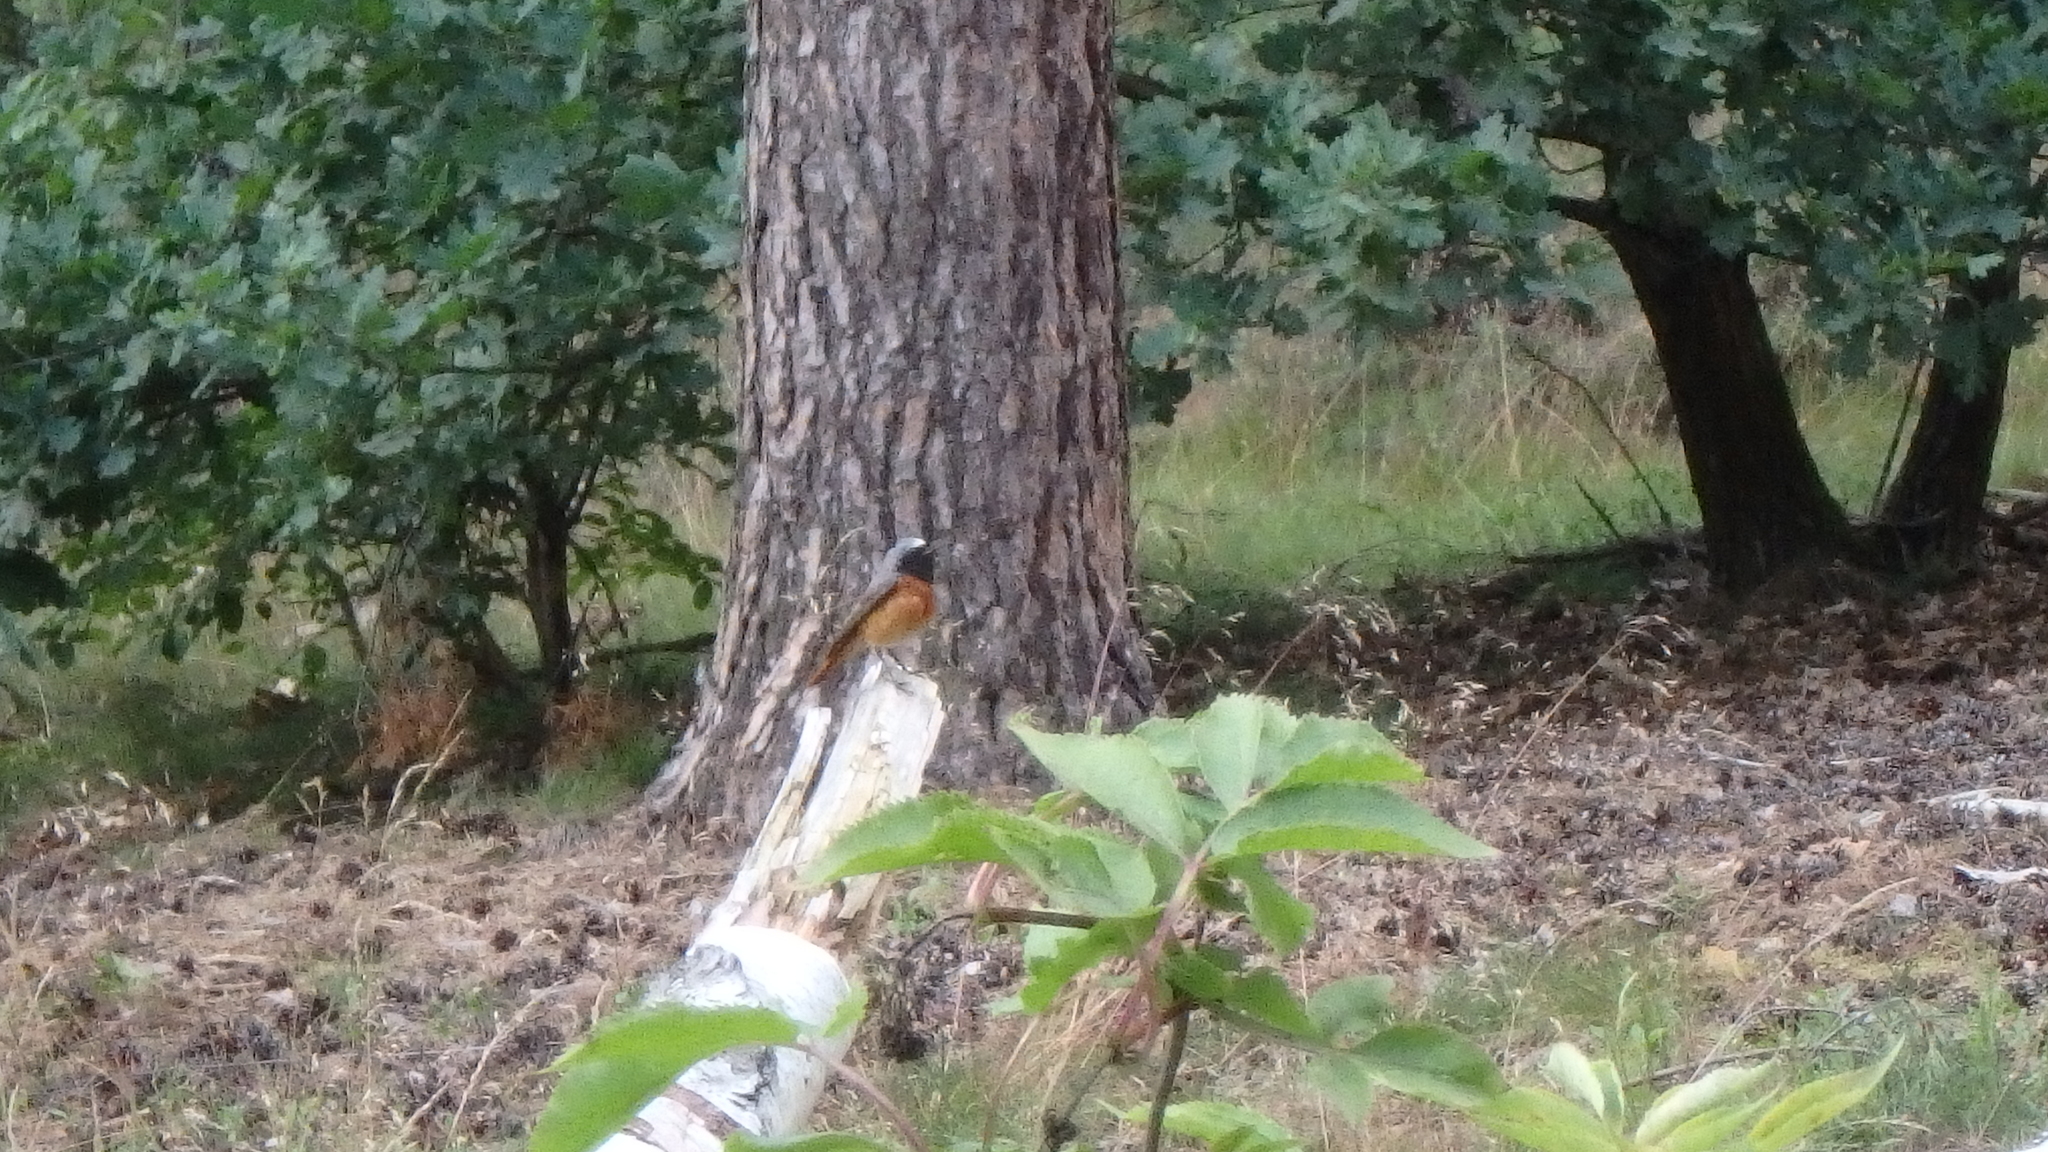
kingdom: Animalia
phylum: Chordata
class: Aves
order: Passeriformes
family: Muscicapidae
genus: Phoenicurus
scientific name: Phoenicurus phoenicurus
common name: Common redstart
